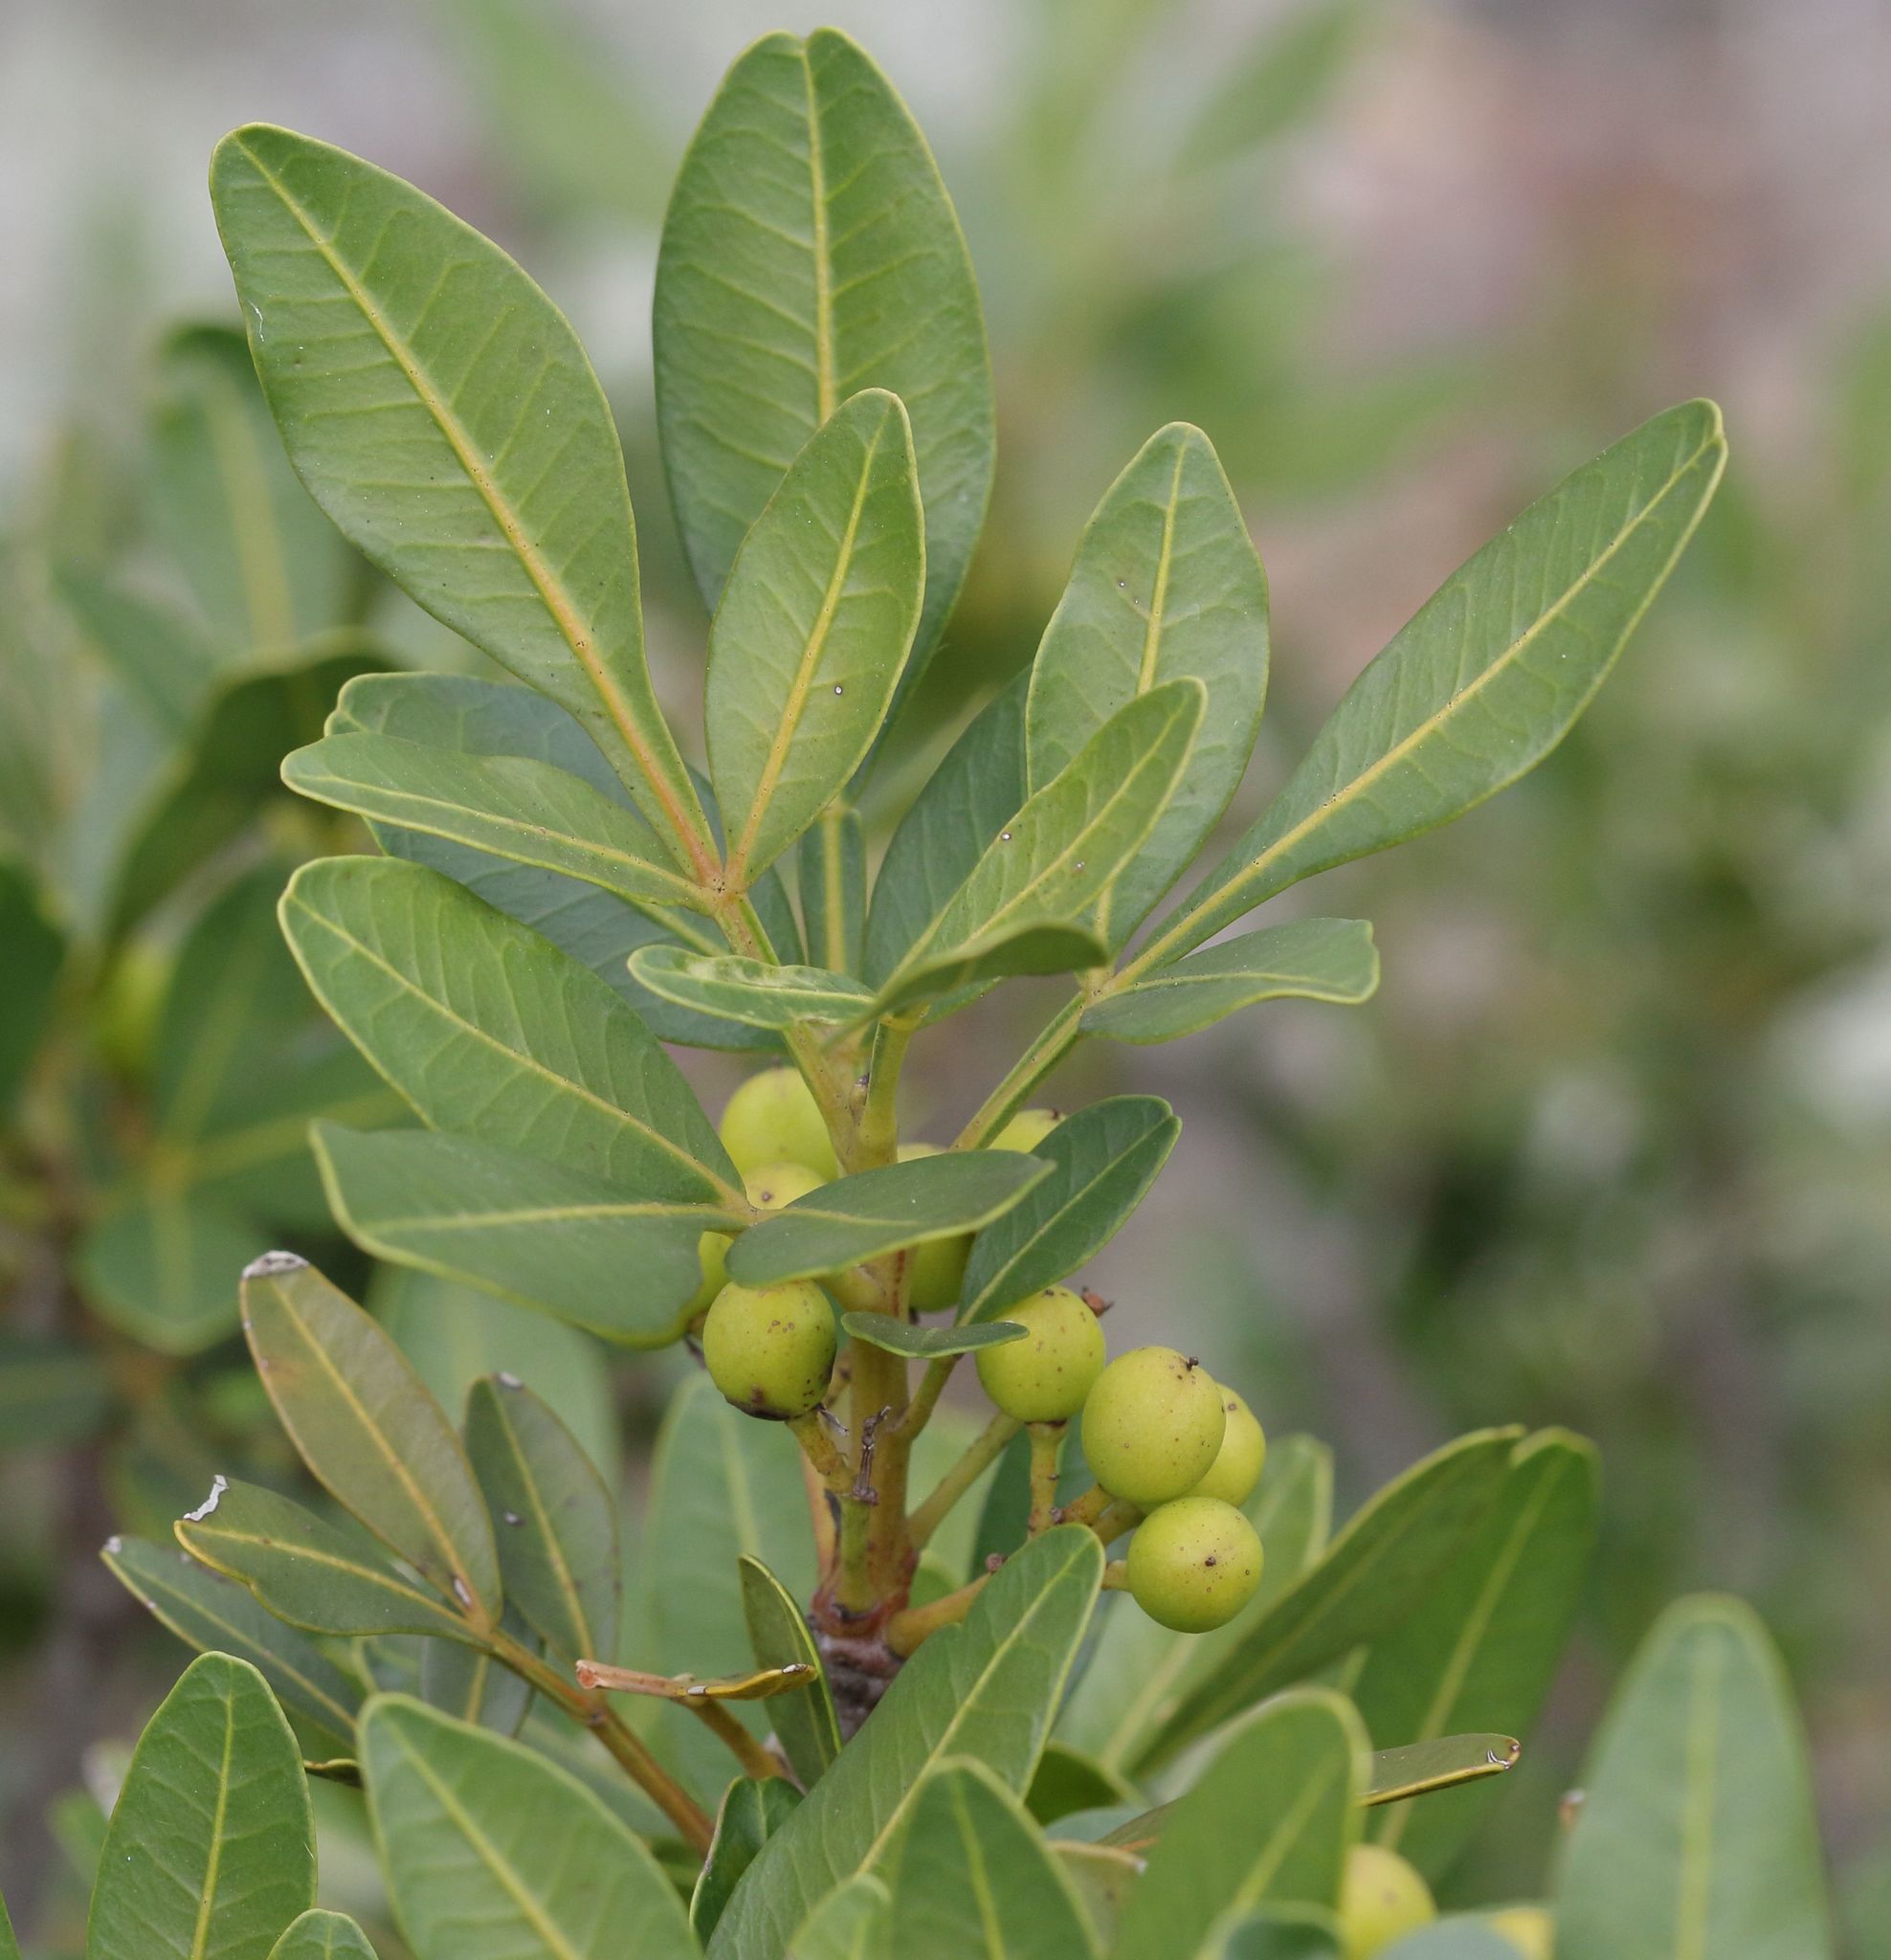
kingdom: Plantae
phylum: Tracheophyta
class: Magnoliopsida
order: Sapindales
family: Meliaceae
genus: Ekebergia
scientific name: Ekebergia pterophylla
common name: Cape ash
